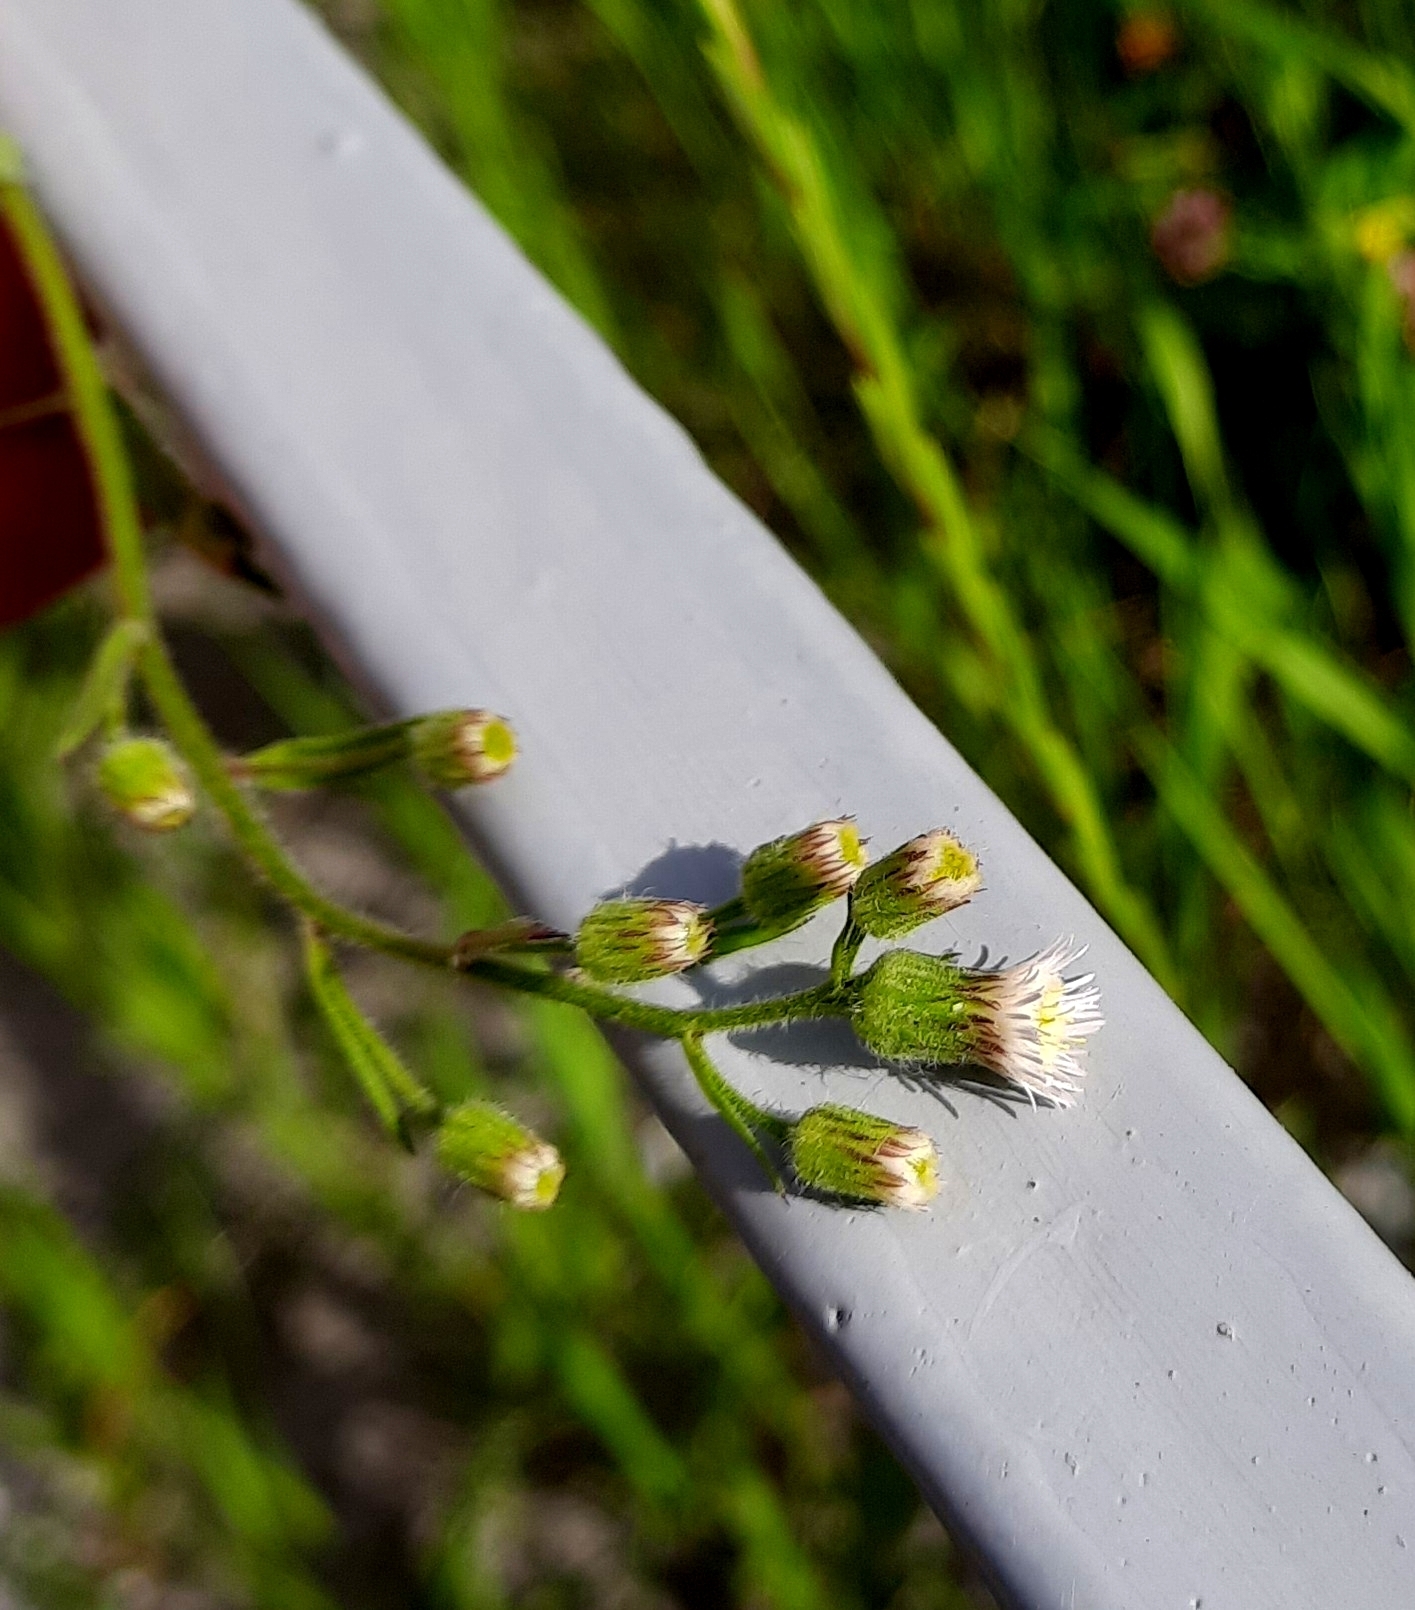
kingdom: Plantae
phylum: Tracheophyta
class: Magnoliopsida
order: Asterales
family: Asteraceae
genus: Erigeron
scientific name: Erigeron acris
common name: Blue fleabane
